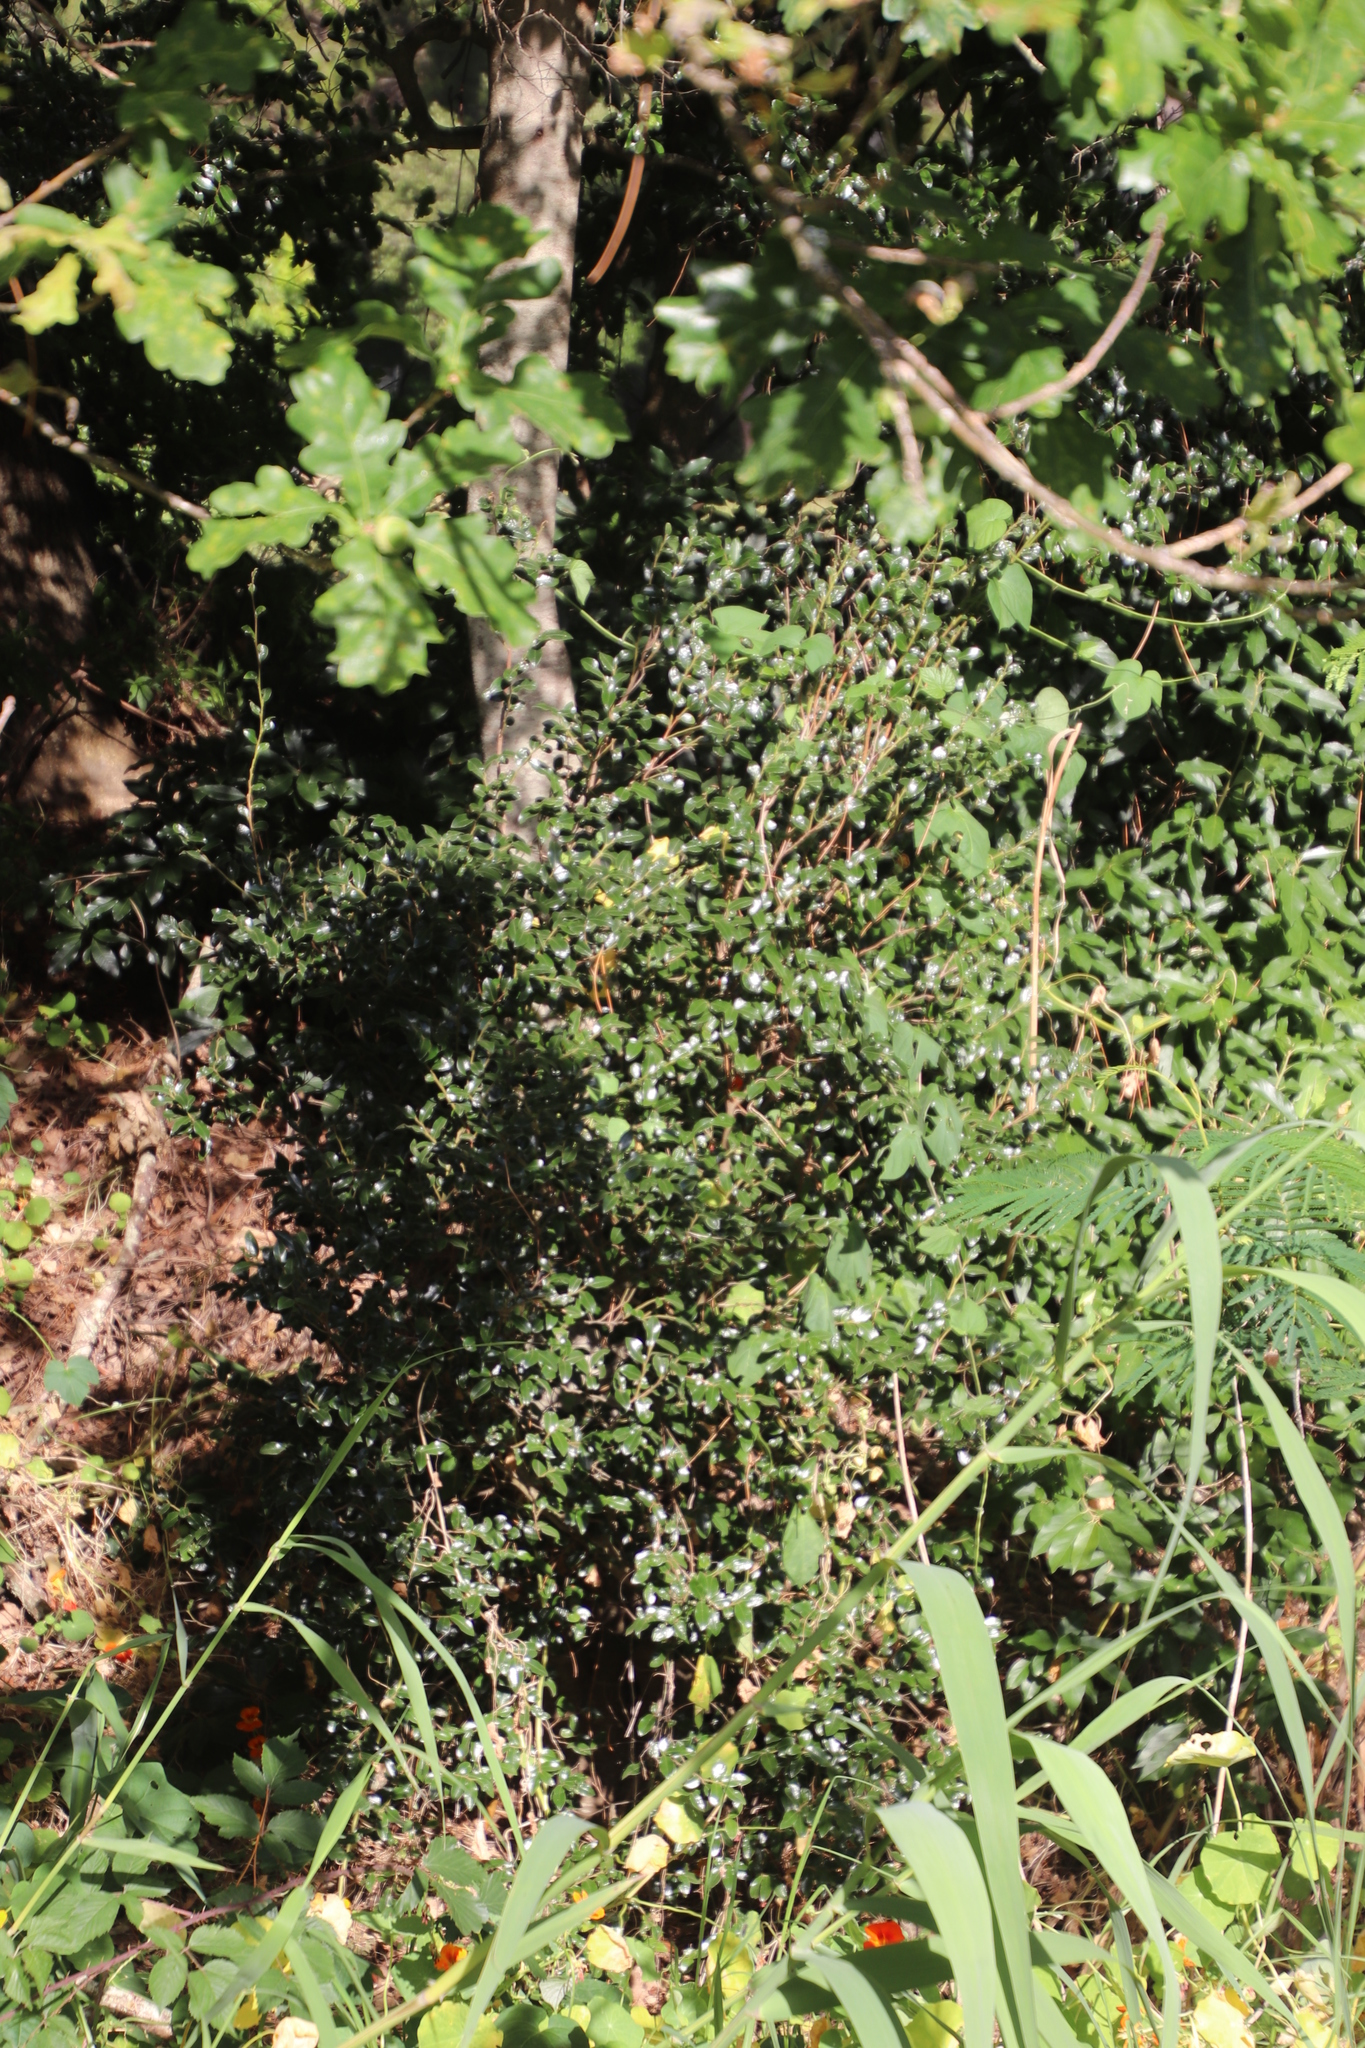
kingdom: Plantae
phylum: Tracheophyta
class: Magnoliopsida
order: Ericales
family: Ebenaceae
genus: Diospyros
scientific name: Diospyros whyteana
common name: Bladder-nut
